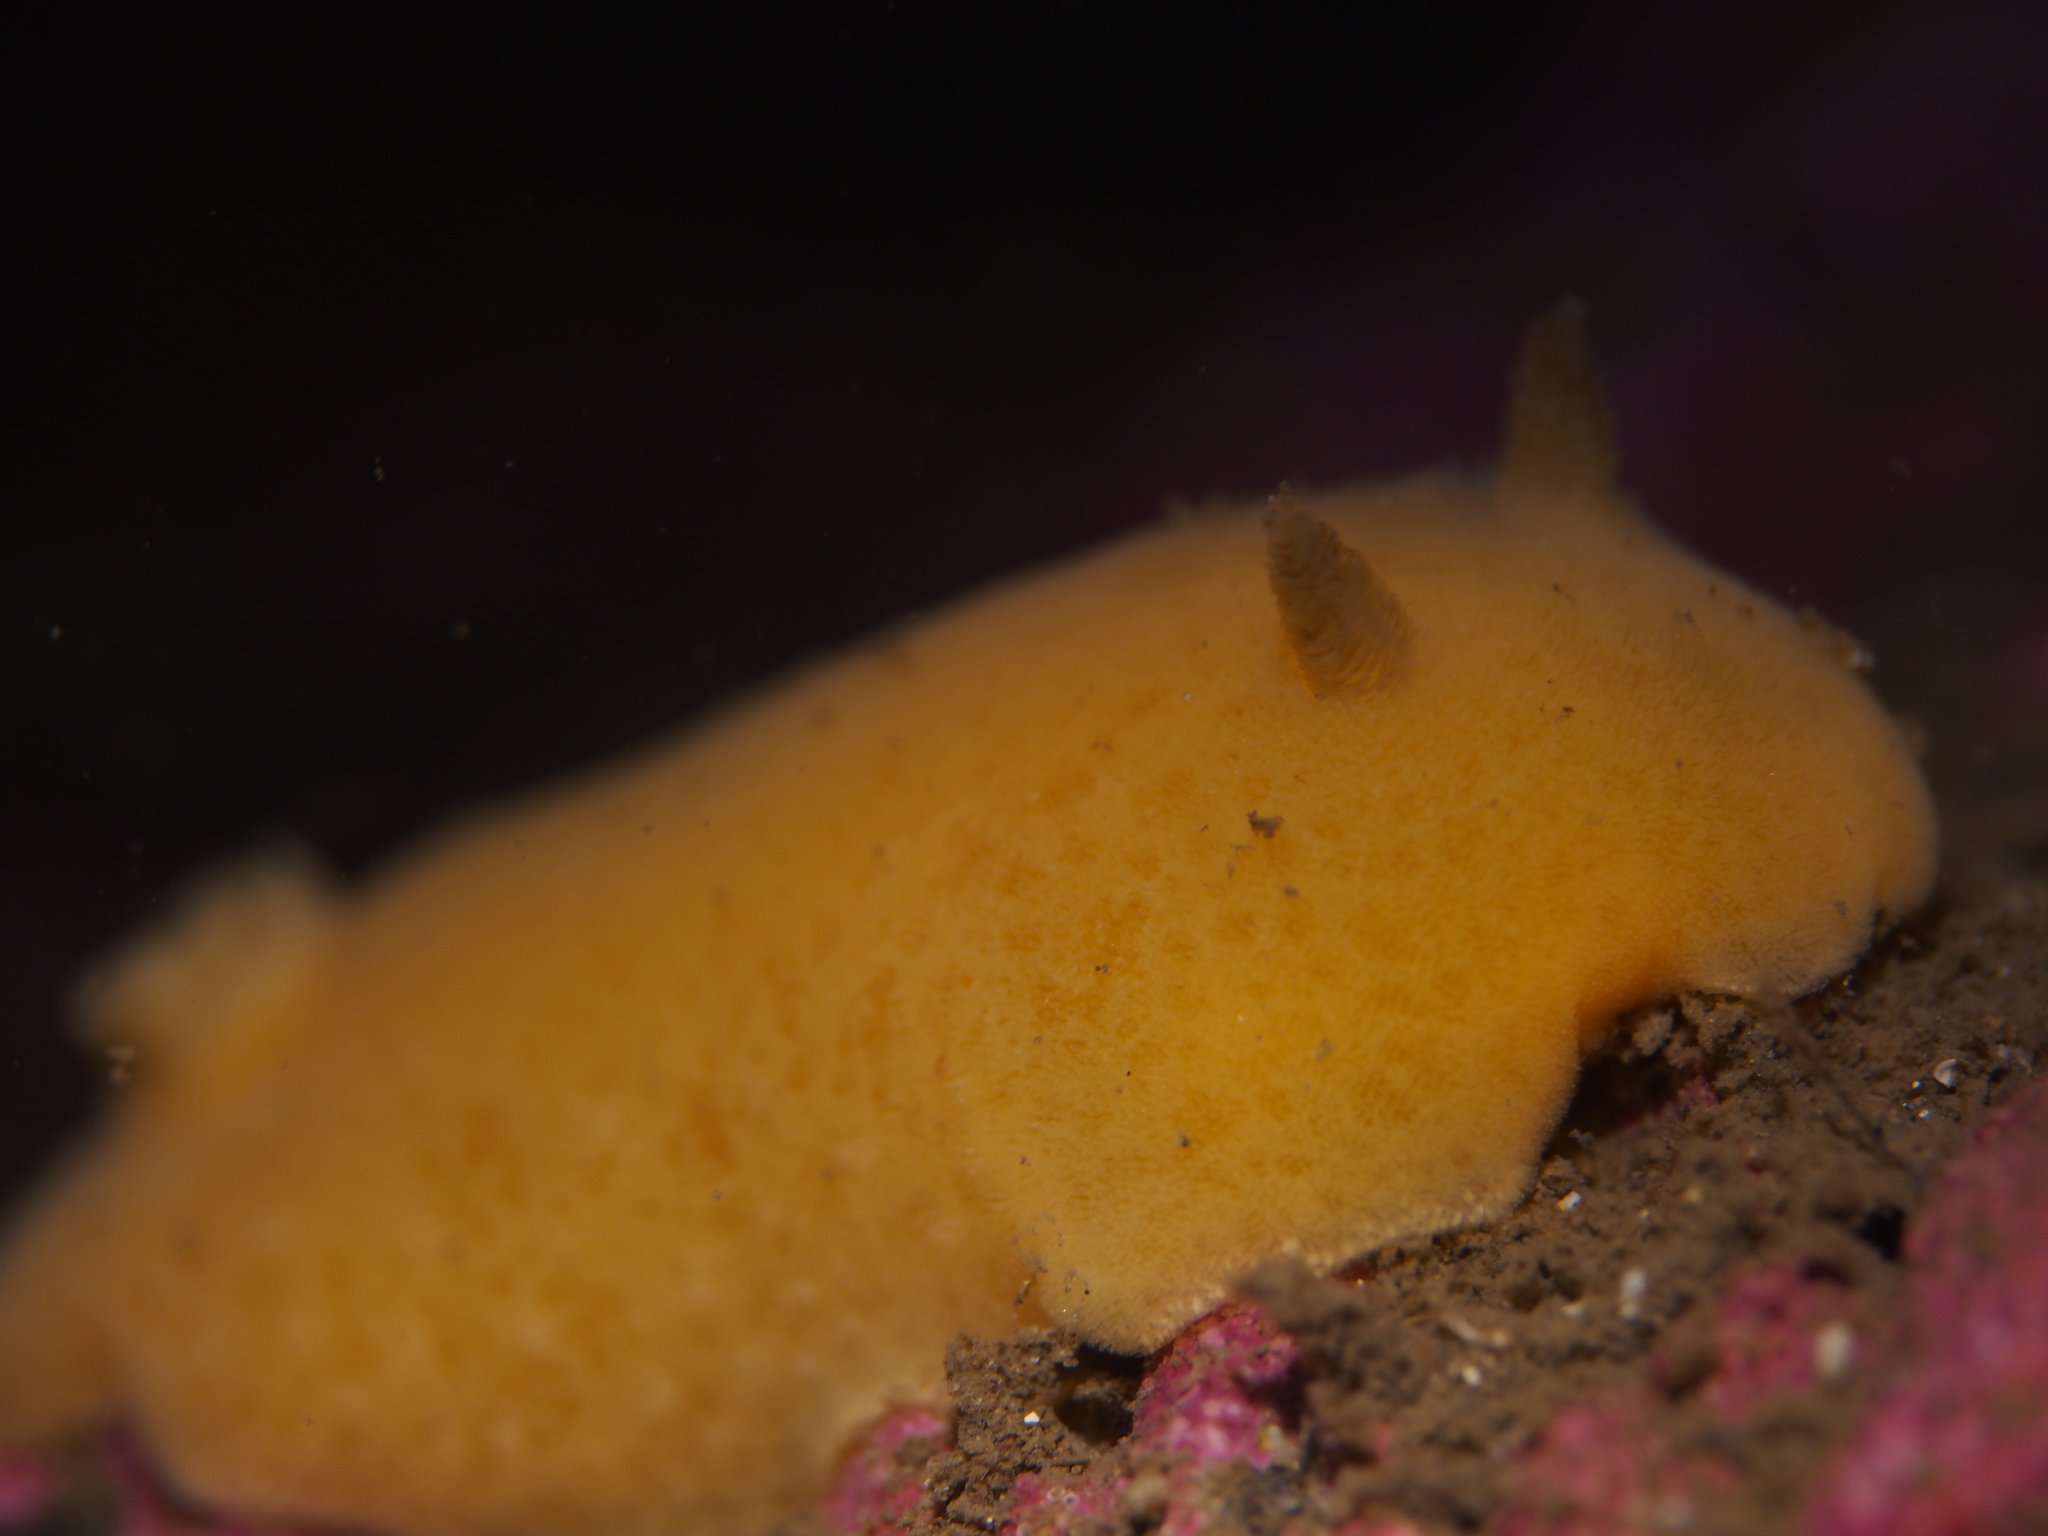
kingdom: Animalia
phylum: Mollusca
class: Gastropoda
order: Nudibranchia
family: Discodorididae
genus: Jorunna
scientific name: Jorunna tomentosa
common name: Grey sea slug
